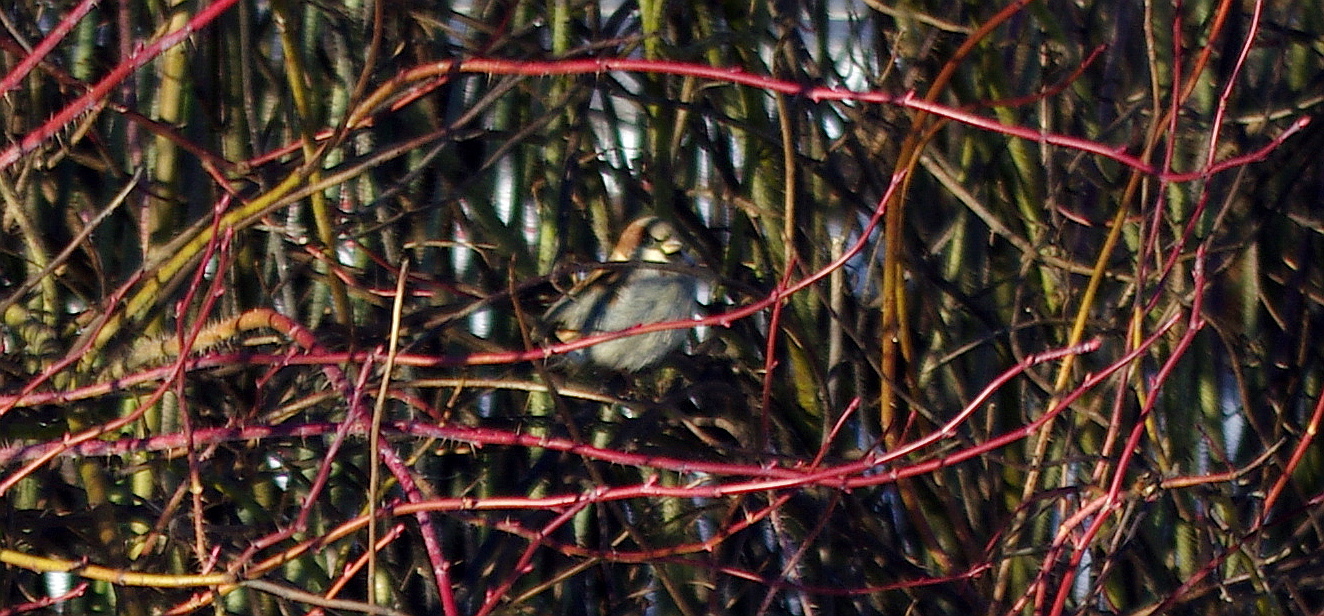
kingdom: Animalia
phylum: Chordata
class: Aves
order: Passeriformes
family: Passeridae
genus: Passer
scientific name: Passer domesticus
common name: House sparrow
